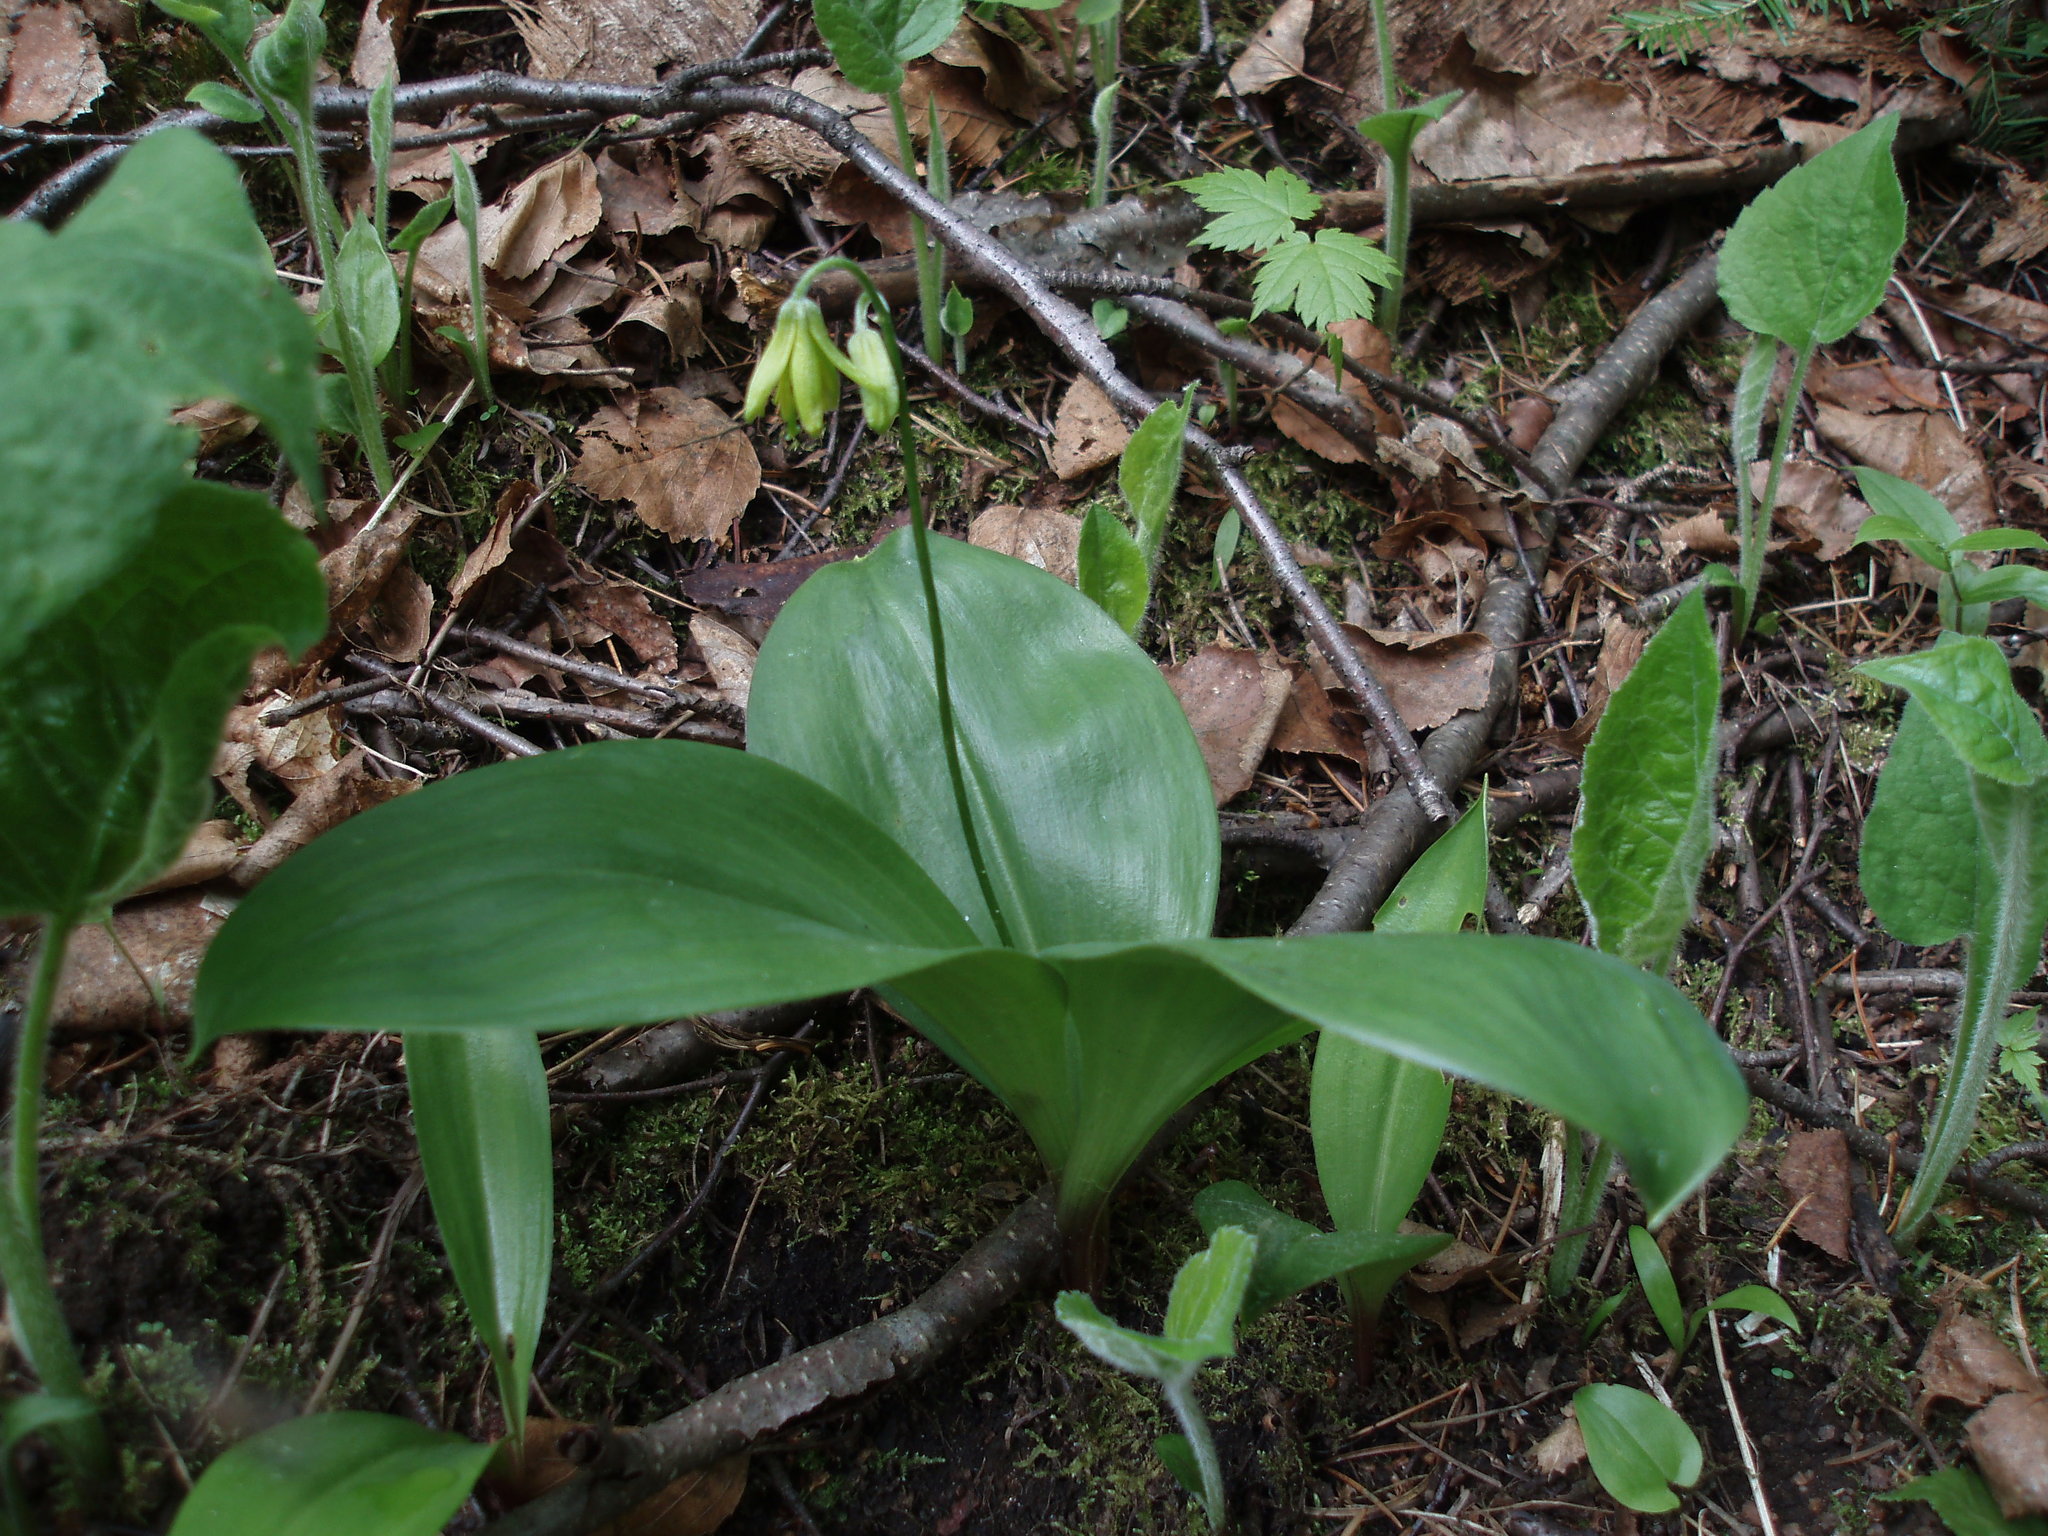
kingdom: Plantae
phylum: Tracheophyta
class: Liliopsida
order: Liliales
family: Liliaceae
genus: Clintonia
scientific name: Clintonia borealis
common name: Yellow clintonia
